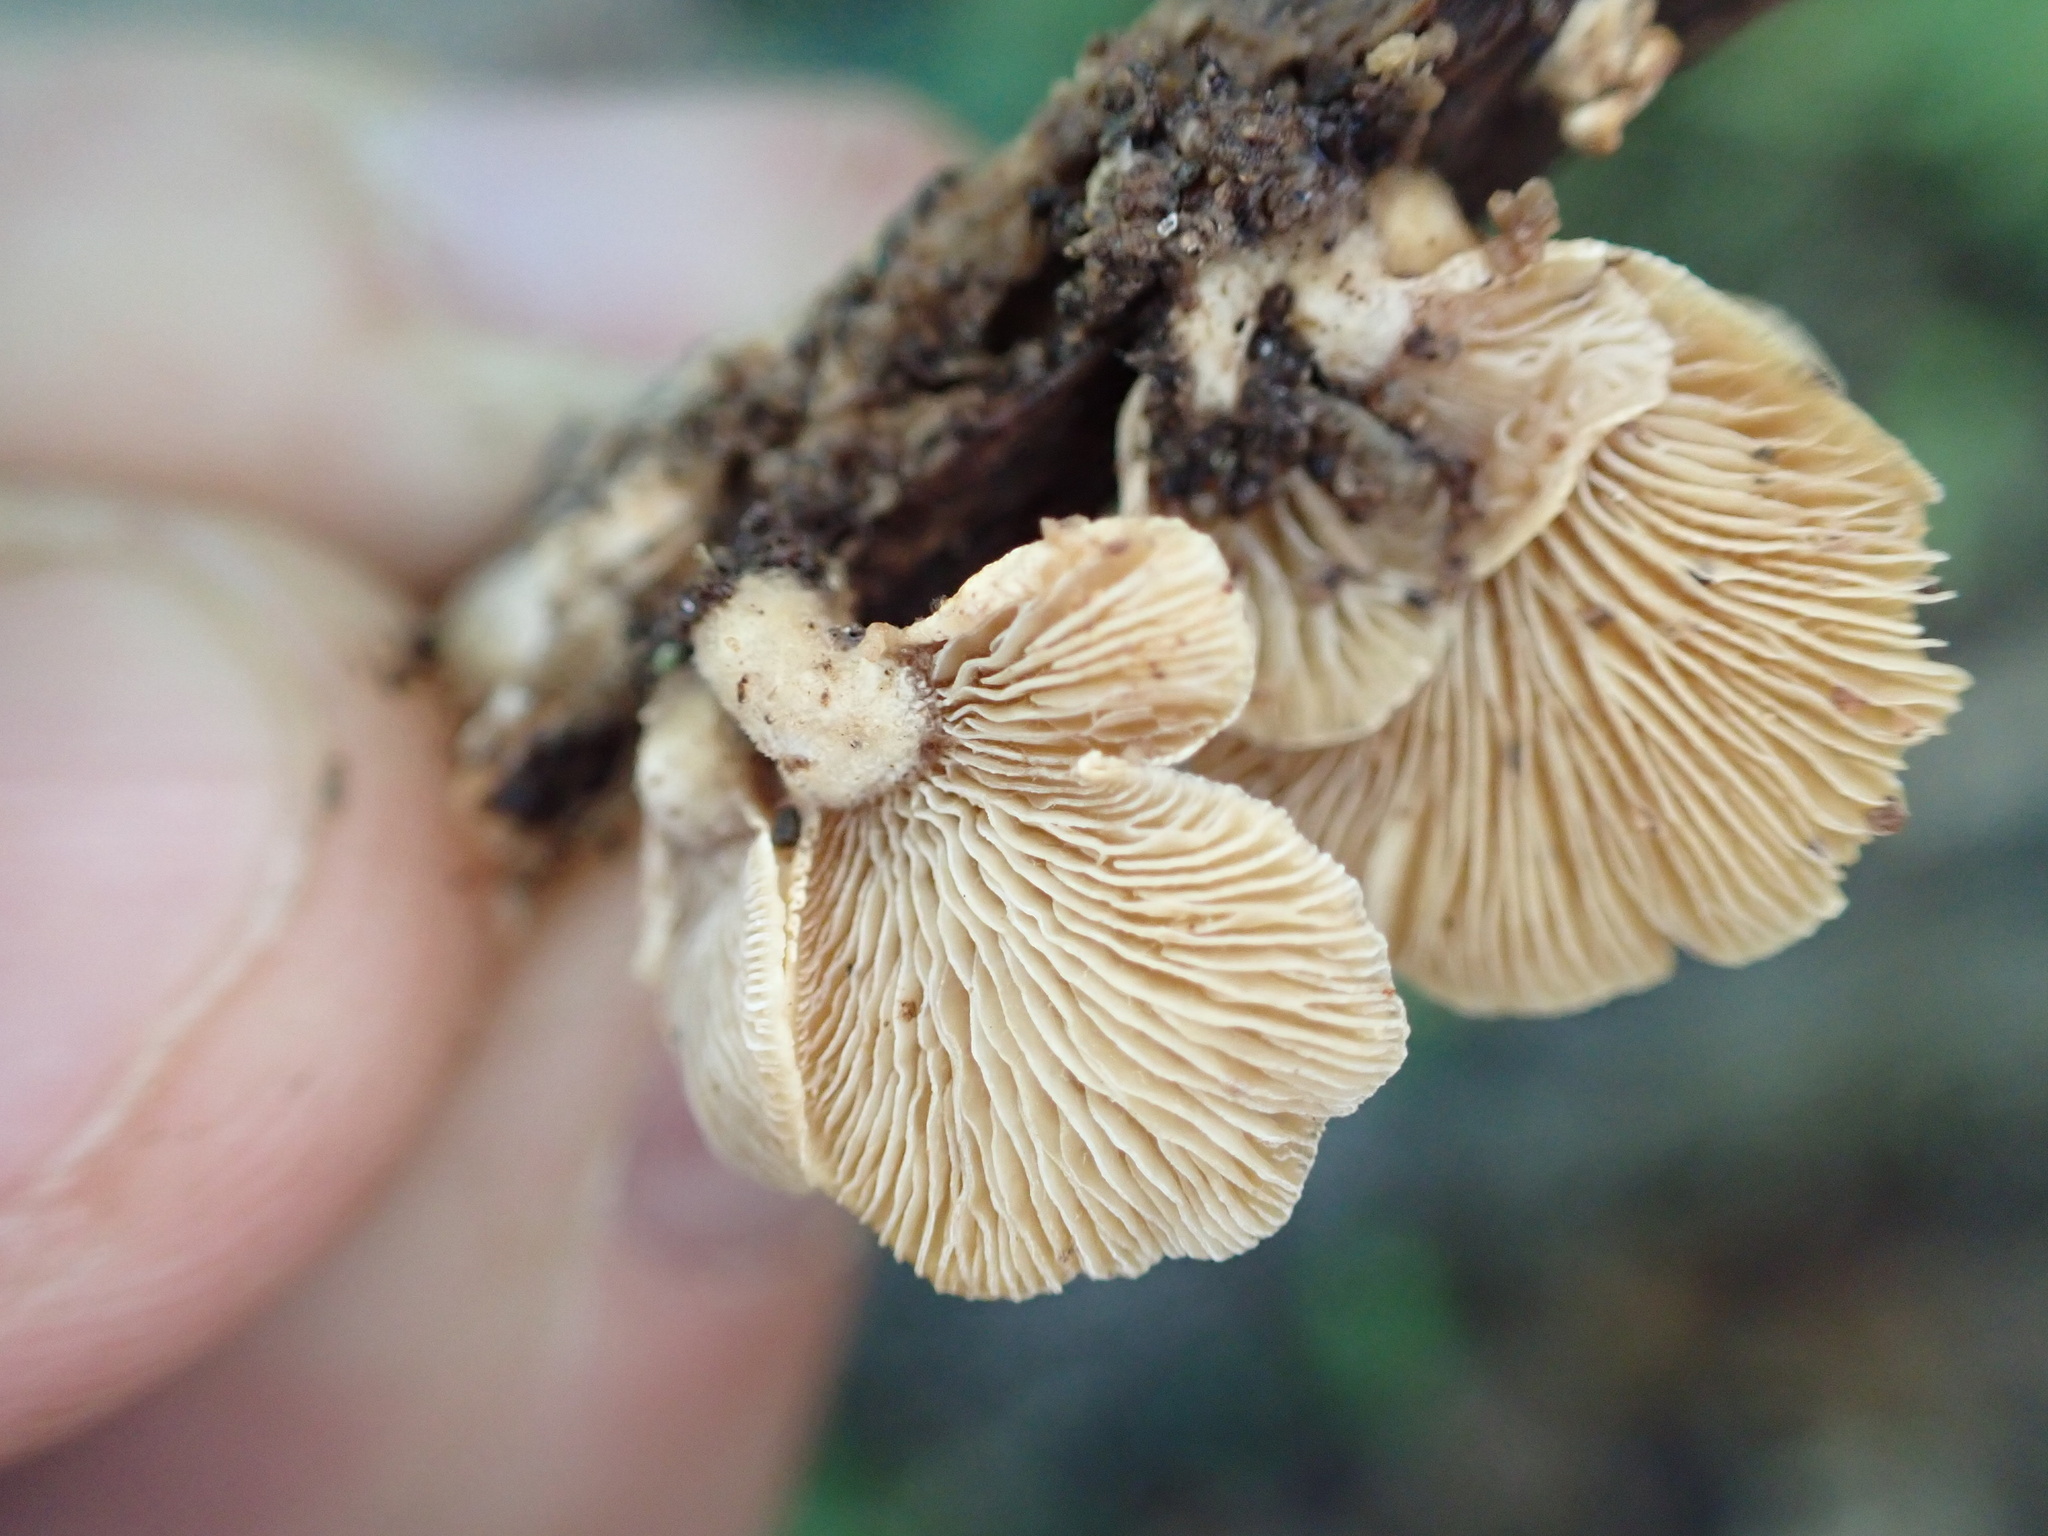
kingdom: Fungi
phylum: Basidiomycota
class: Agaricomycetes
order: Agaricales
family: Mycenaceae
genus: Panellus
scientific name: Panellus stipticus
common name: Bitter oysterling
